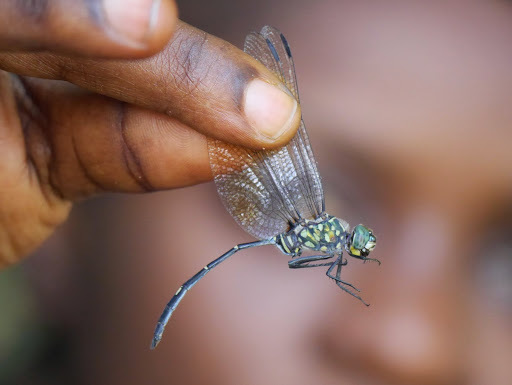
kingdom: Animalia
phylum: Arthropoda
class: Insecta
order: Odonata
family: Libellulidae
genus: Olpogastra
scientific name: Olpogastra lugubris
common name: Bottletail
